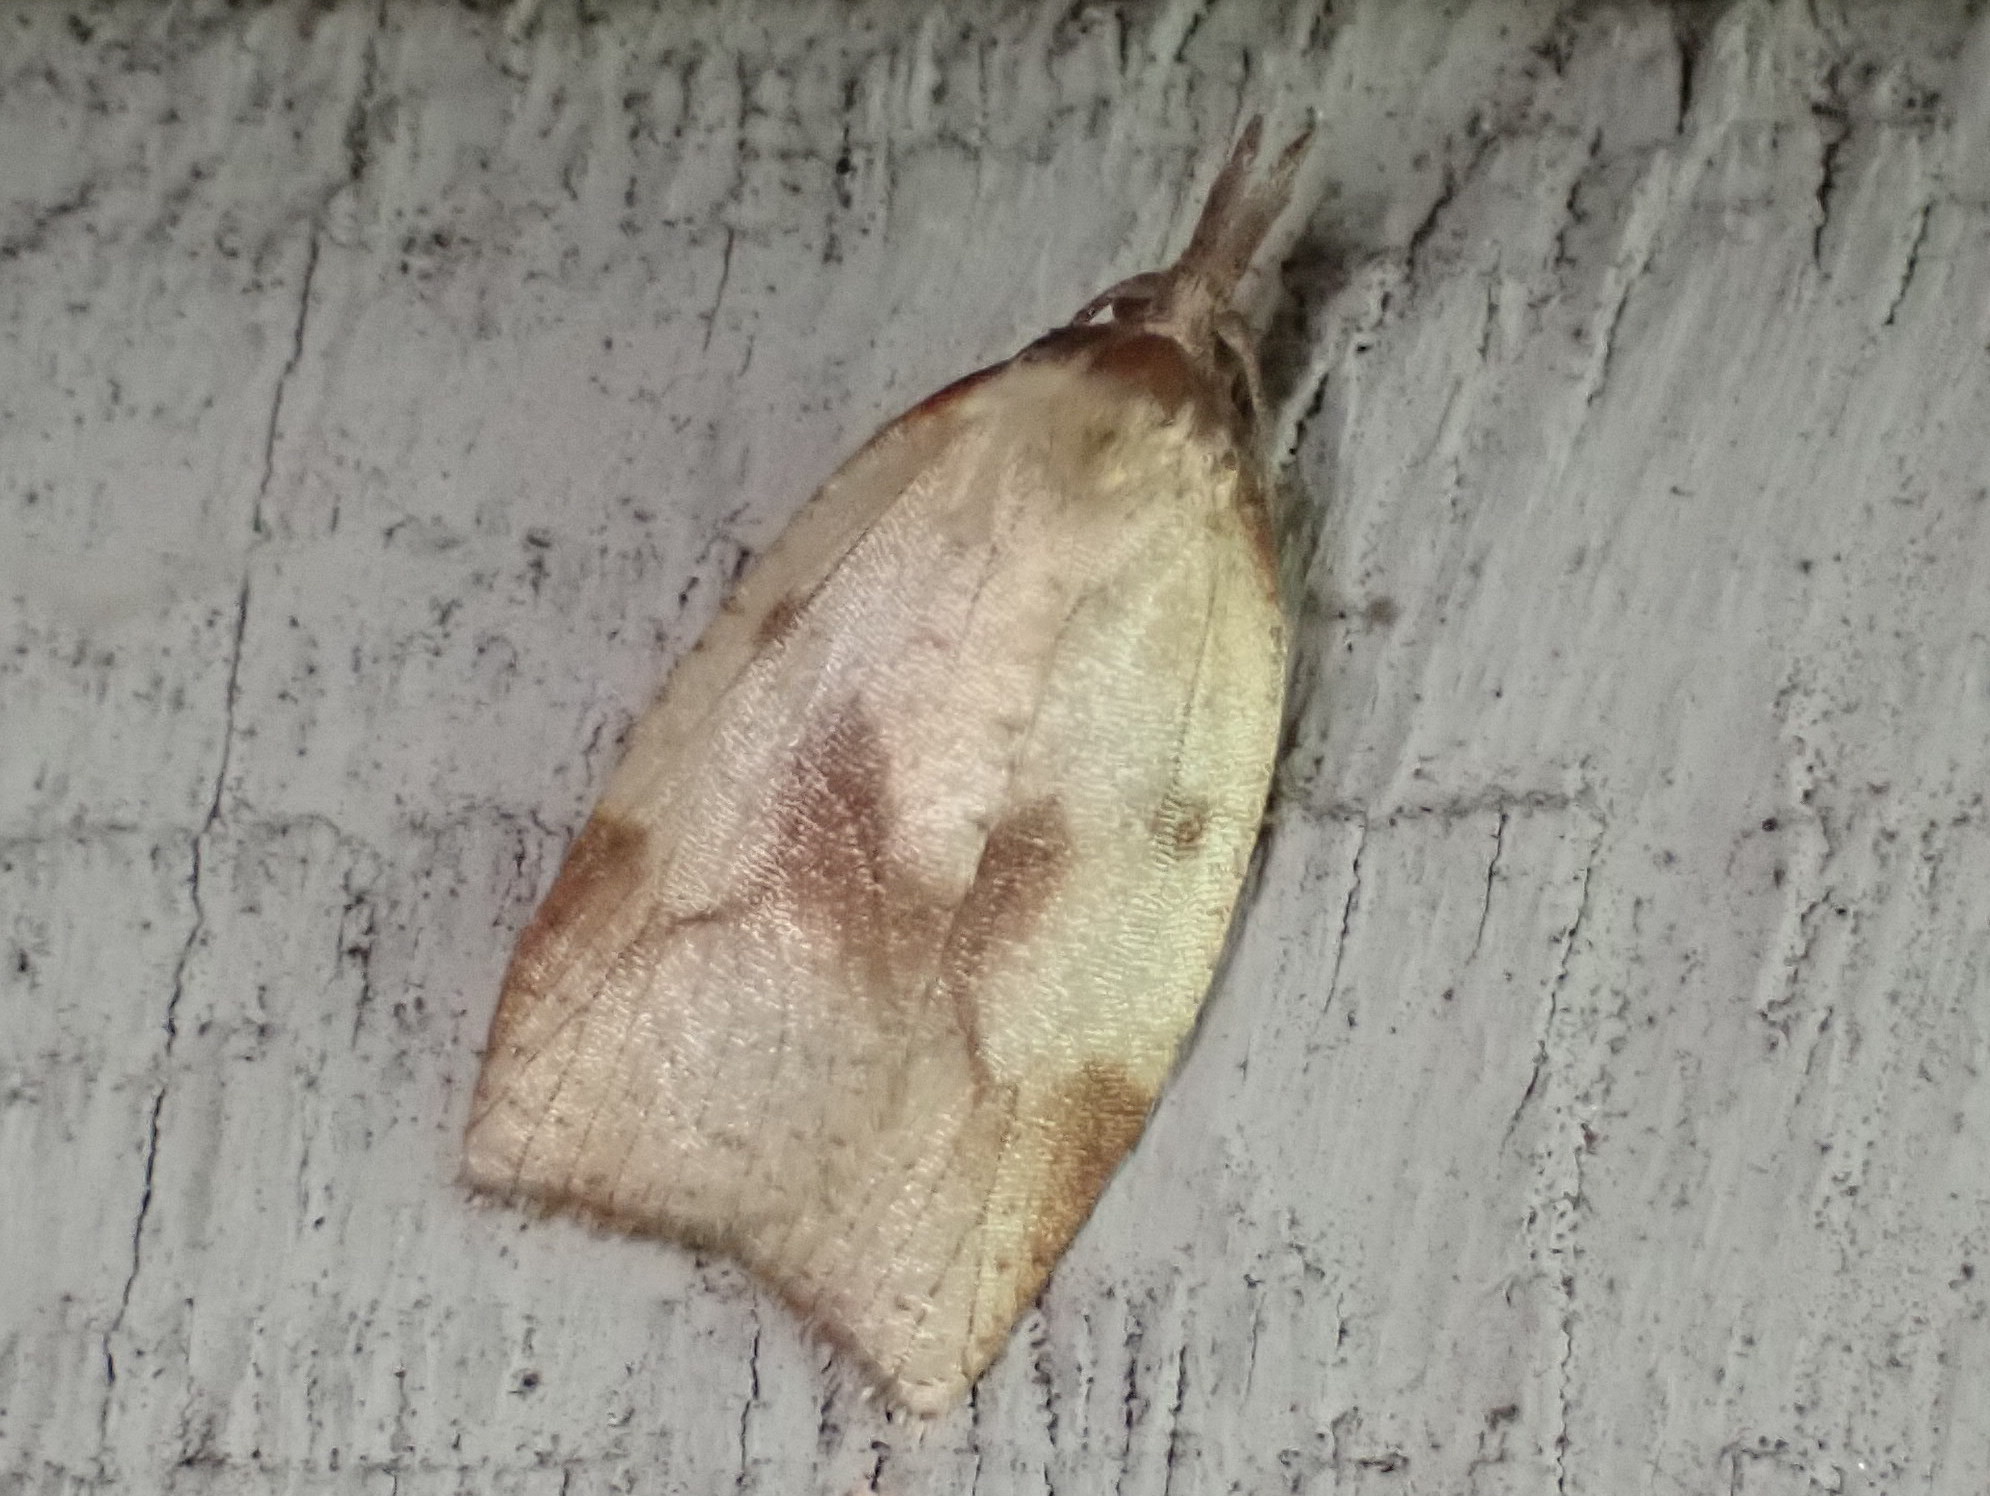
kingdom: Animalia
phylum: Arthropoda
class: Insecta
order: Lepidoptera
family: Tortricidae
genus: Sparganothis
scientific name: Sparganothis xanthoides
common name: Mosaic sparganothis moth
